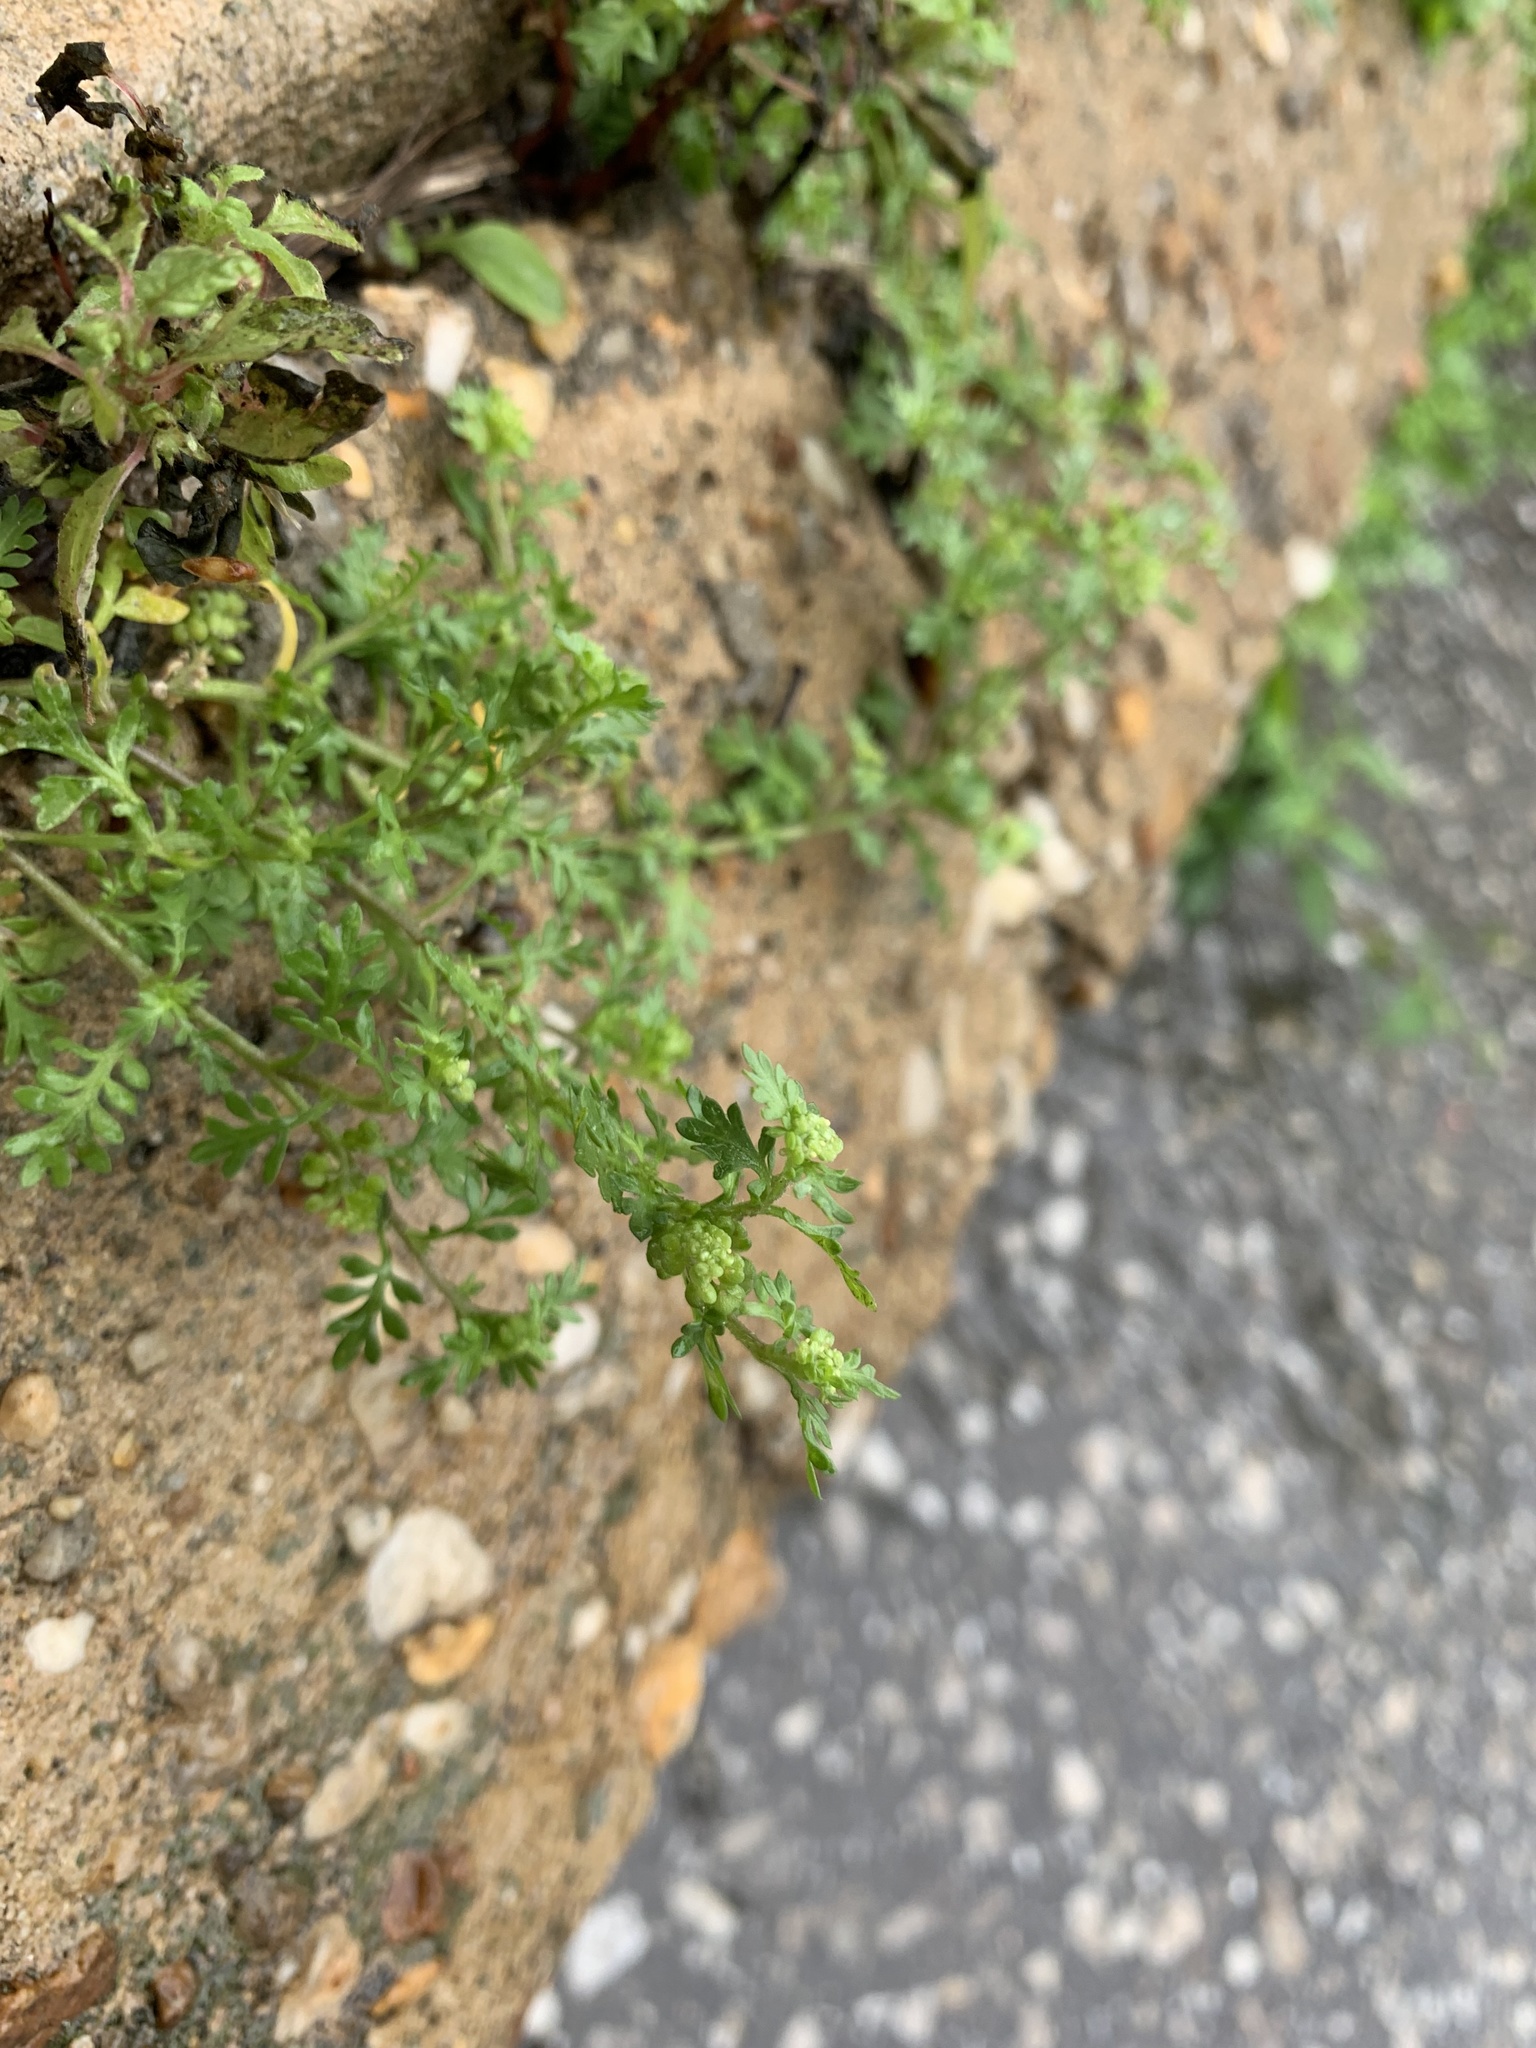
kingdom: Plantae
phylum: Tracheophyta
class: Magnoliopsida
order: Brassicales
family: Brassicaceae
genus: Lepidium
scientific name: Lepidium didymum
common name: Lesser swinecress
